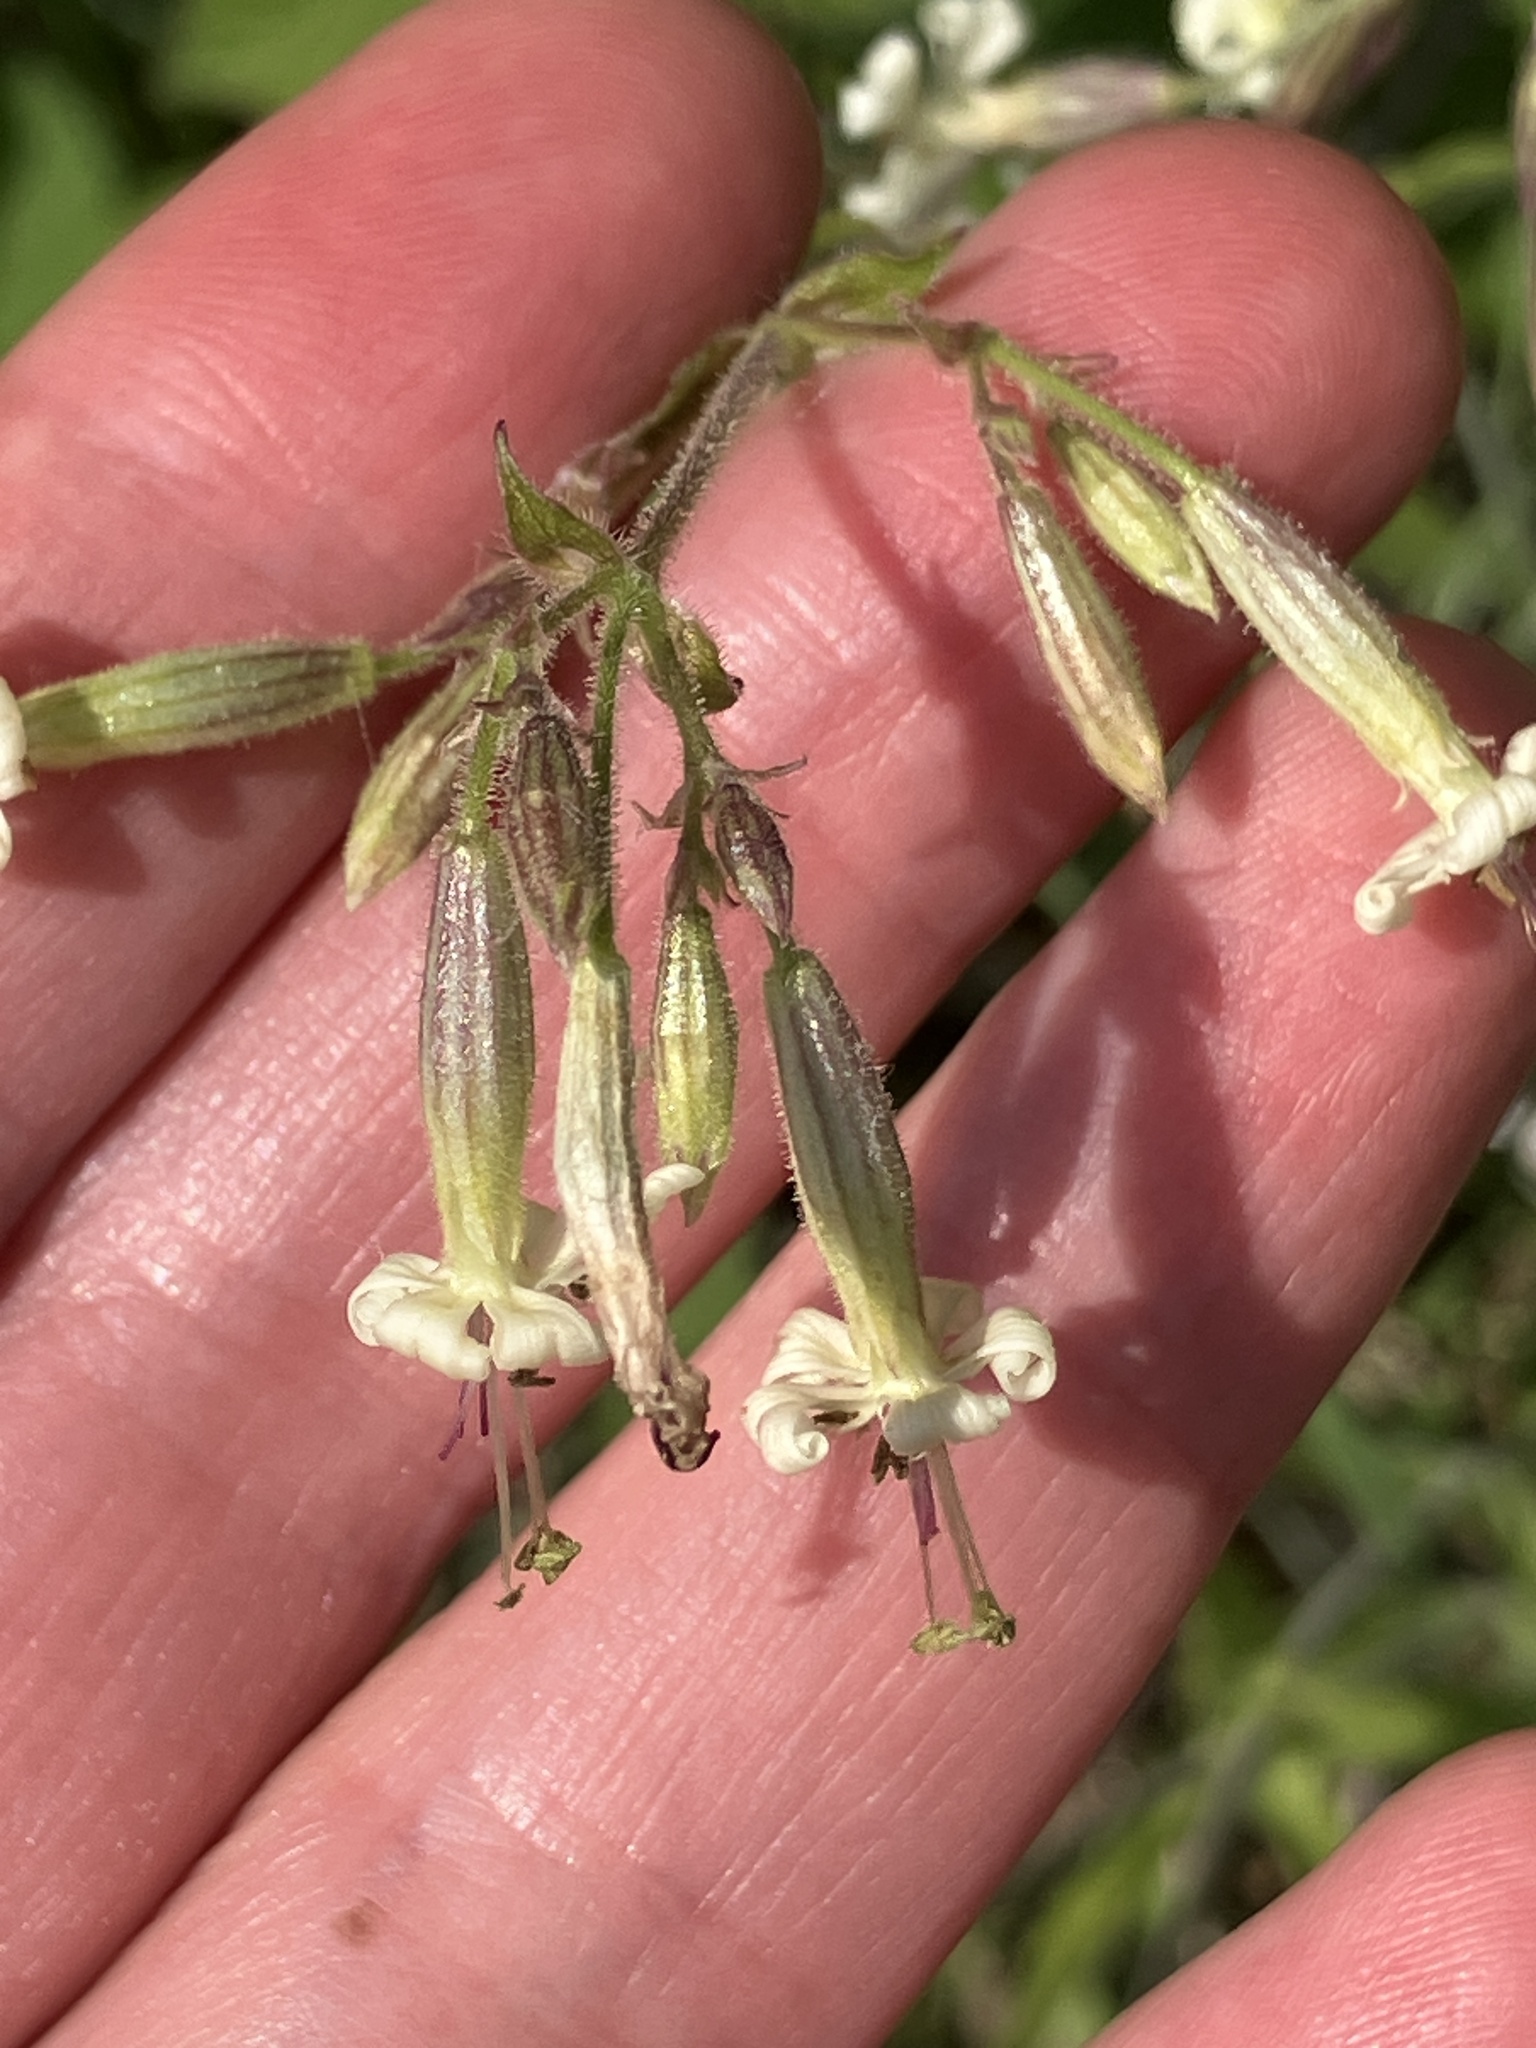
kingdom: Plantae
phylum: Tracheophyta
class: Magnoliopsida
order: Caryophyllales
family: Caryophyllaceae
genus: Silene
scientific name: Silene nutans
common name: Nottingham catchfly
